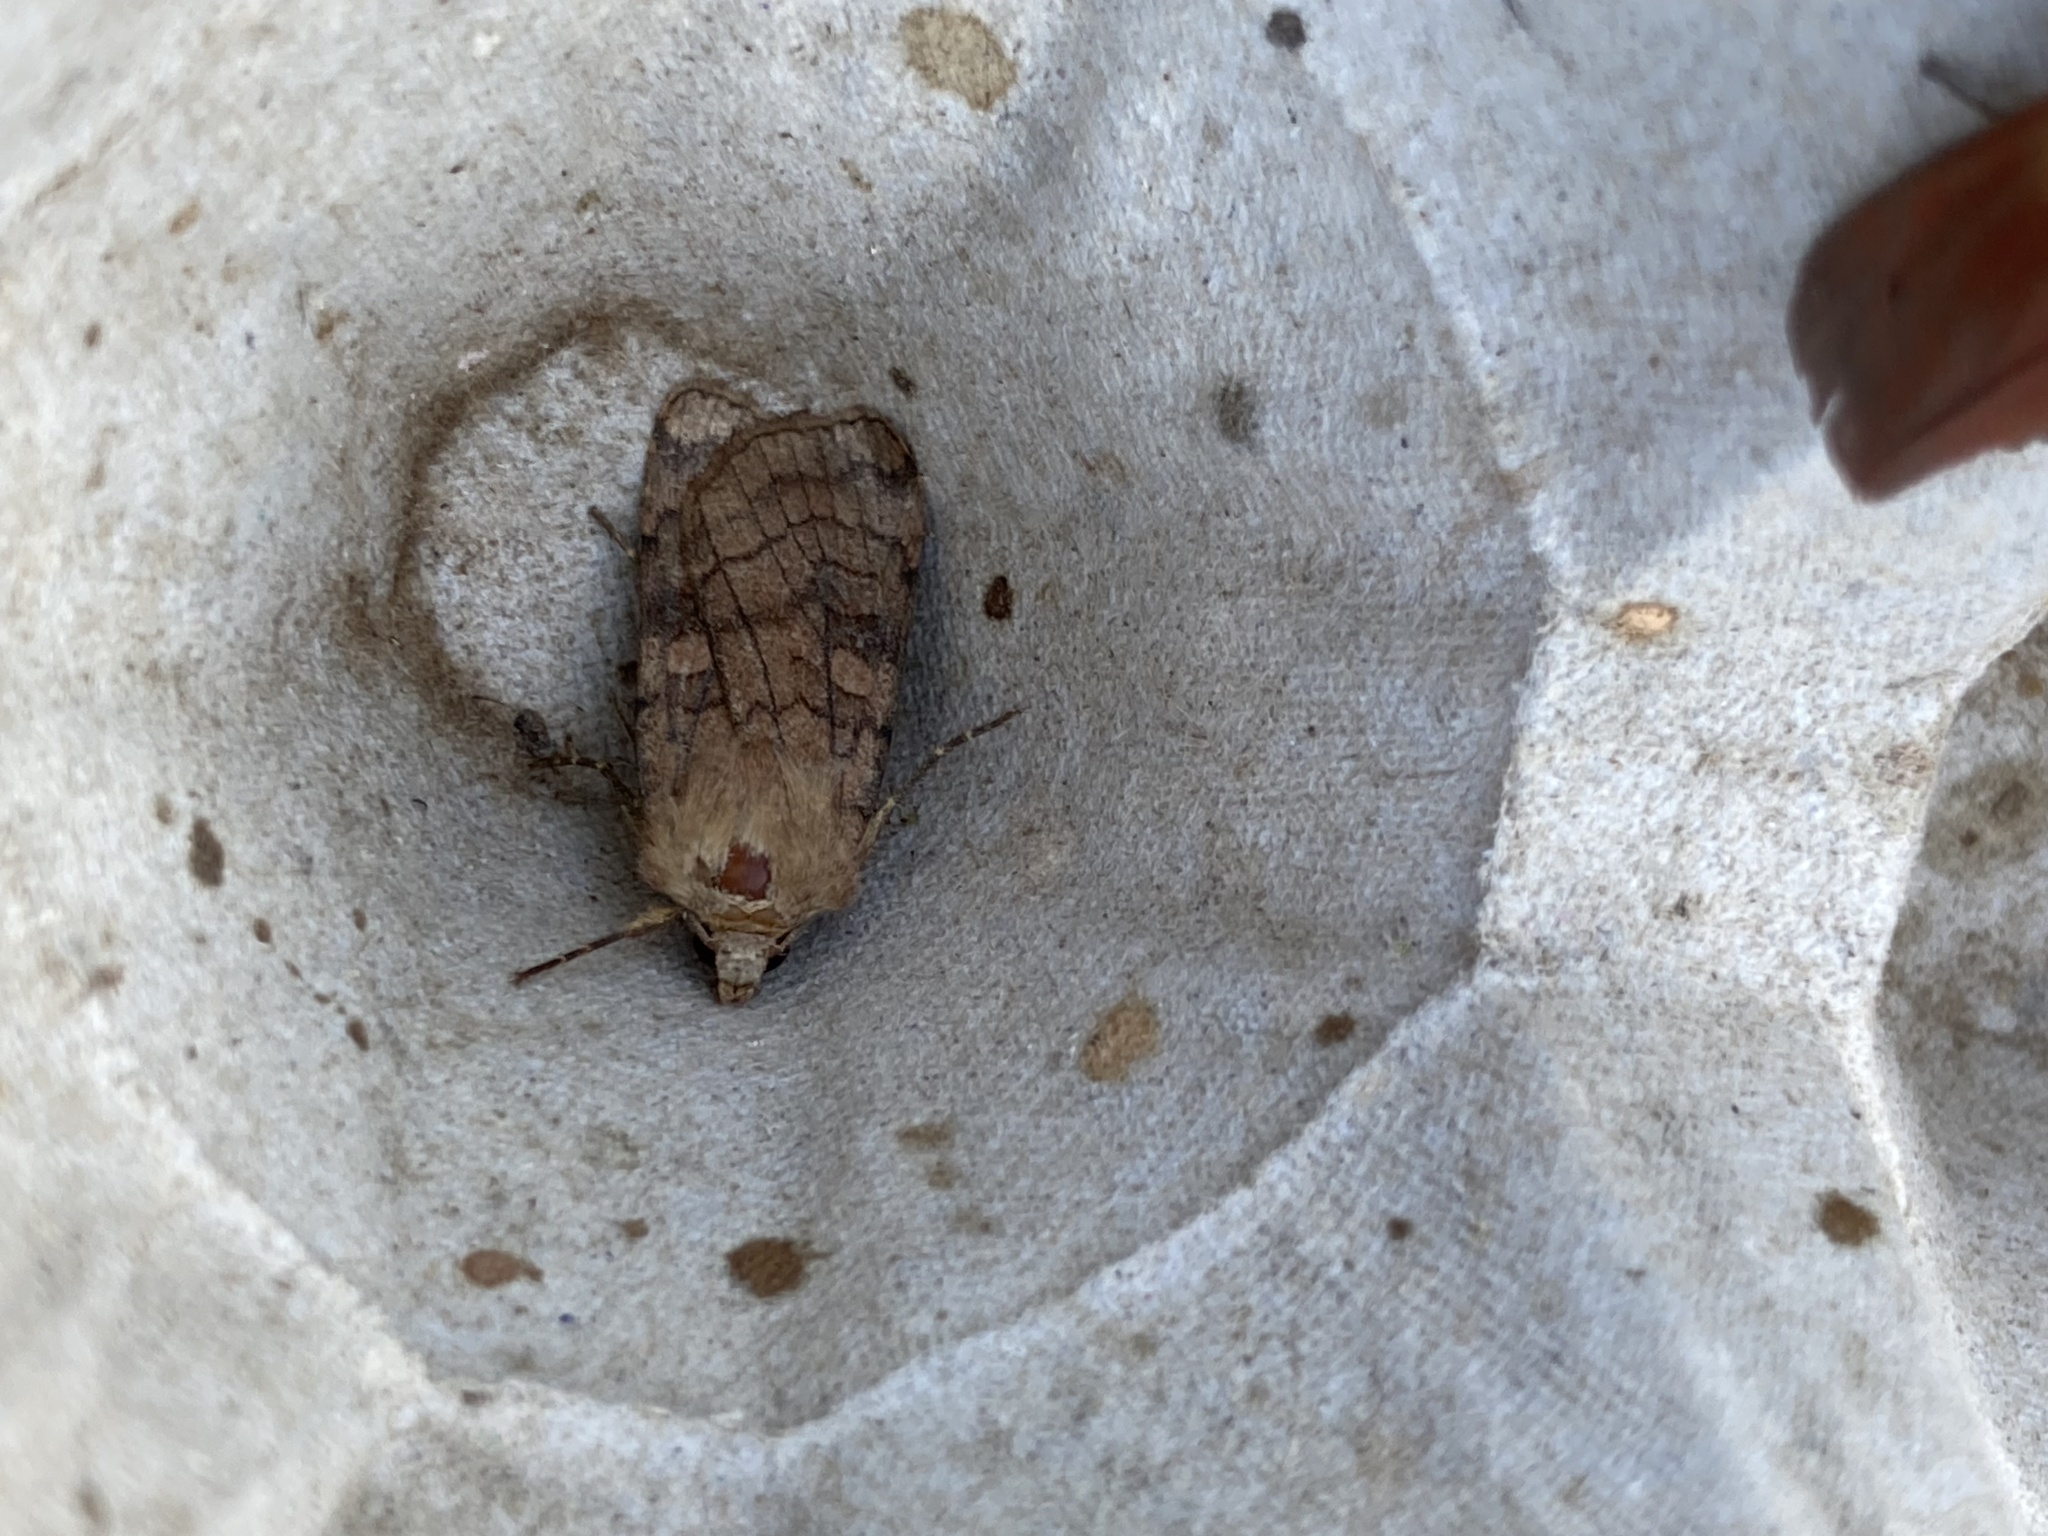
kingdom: Animalia
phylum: Arthropoda
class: Insecta
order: Lepidoptera
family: Noctuidae
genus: Xestia
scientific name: Xestia sexstrigata
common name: Six-striped rustic
